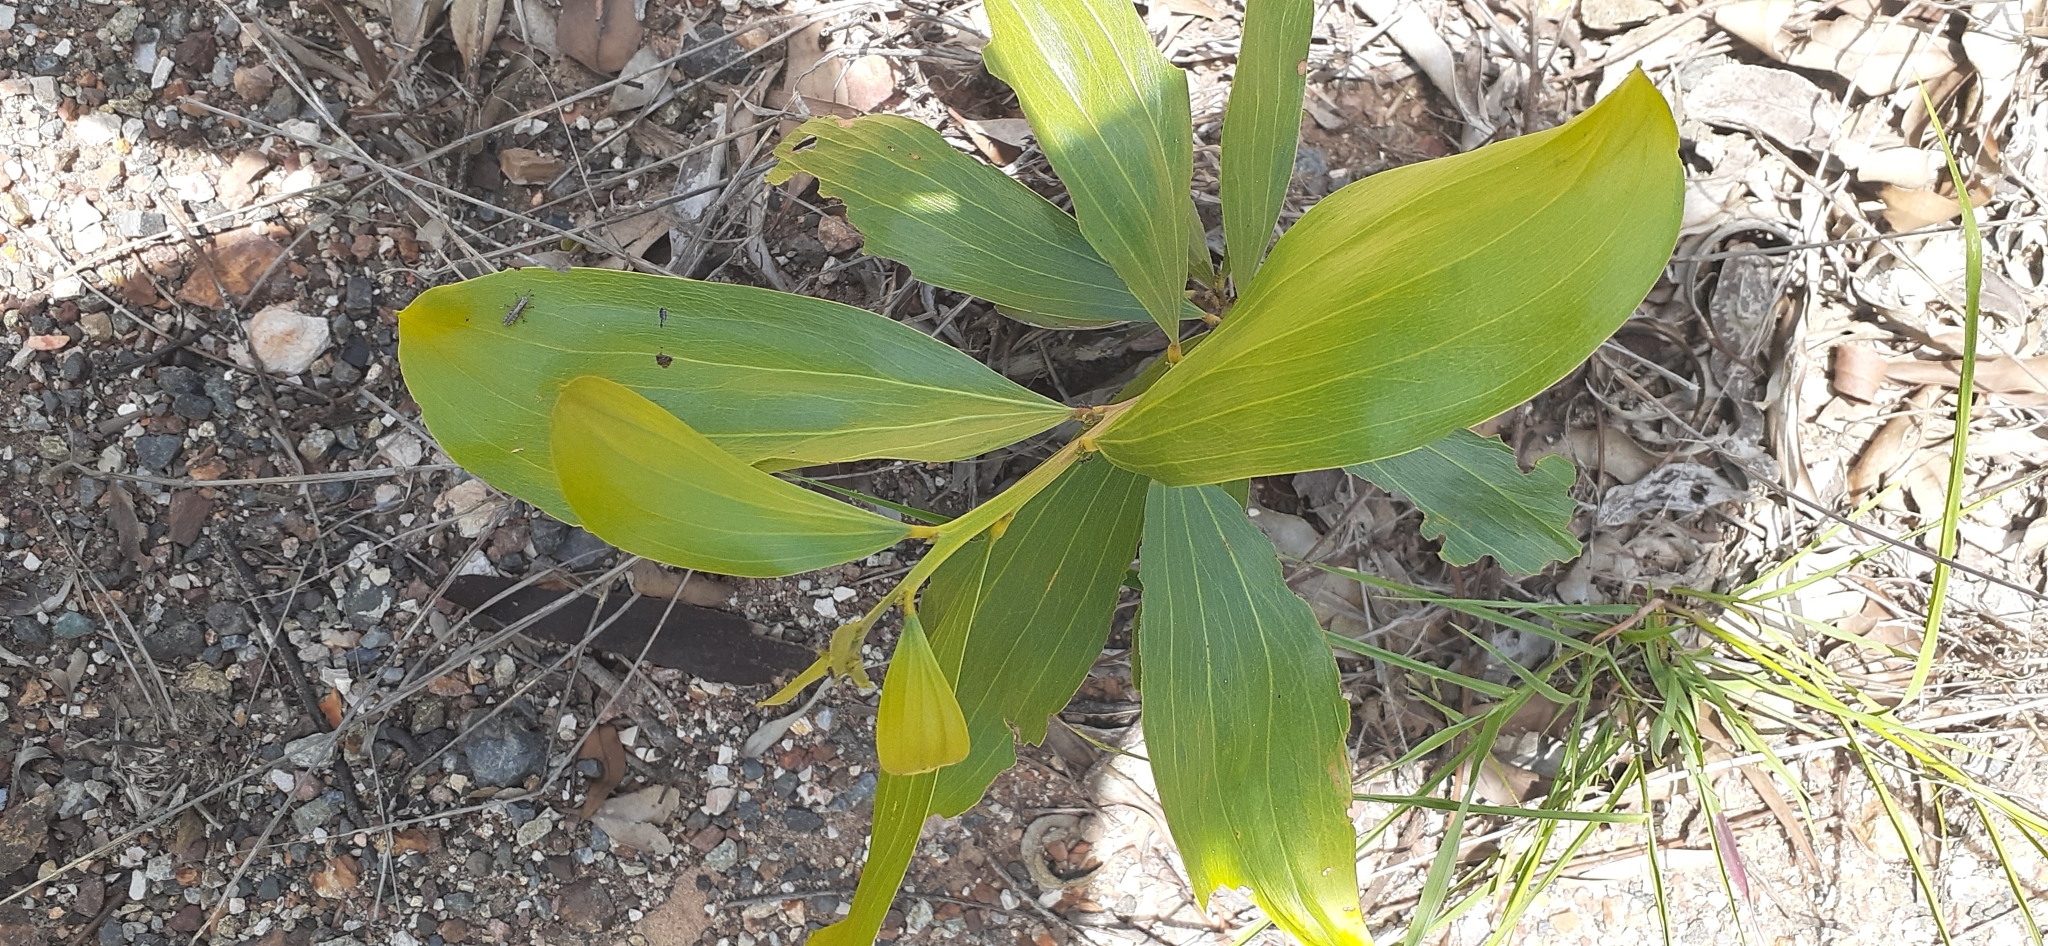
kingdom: Plantae
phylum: Tracheophyta
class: Magnoliopsida
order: Fabales
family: Fabaceae
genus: Acacia
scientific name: Acacia leiocalyx
